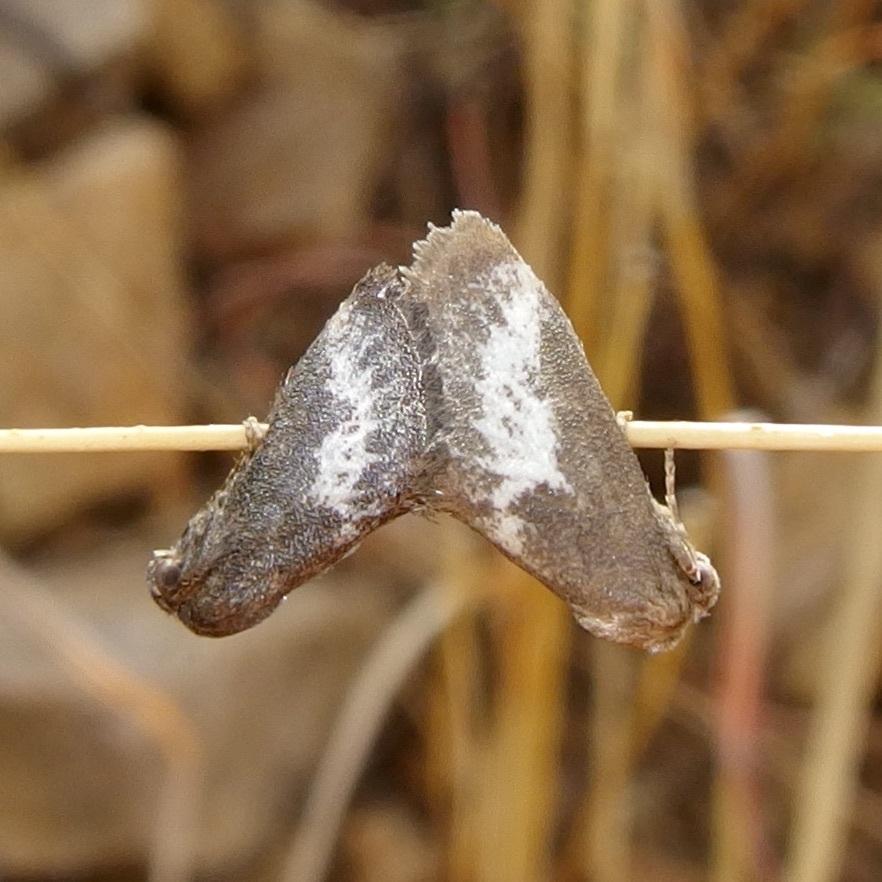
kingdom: Animalia
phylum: Arthropoda
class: Insecta
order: Lepidoptera
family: Limacodidae
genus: Cryptophobetron
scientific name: Cryptophobetron oropeso
